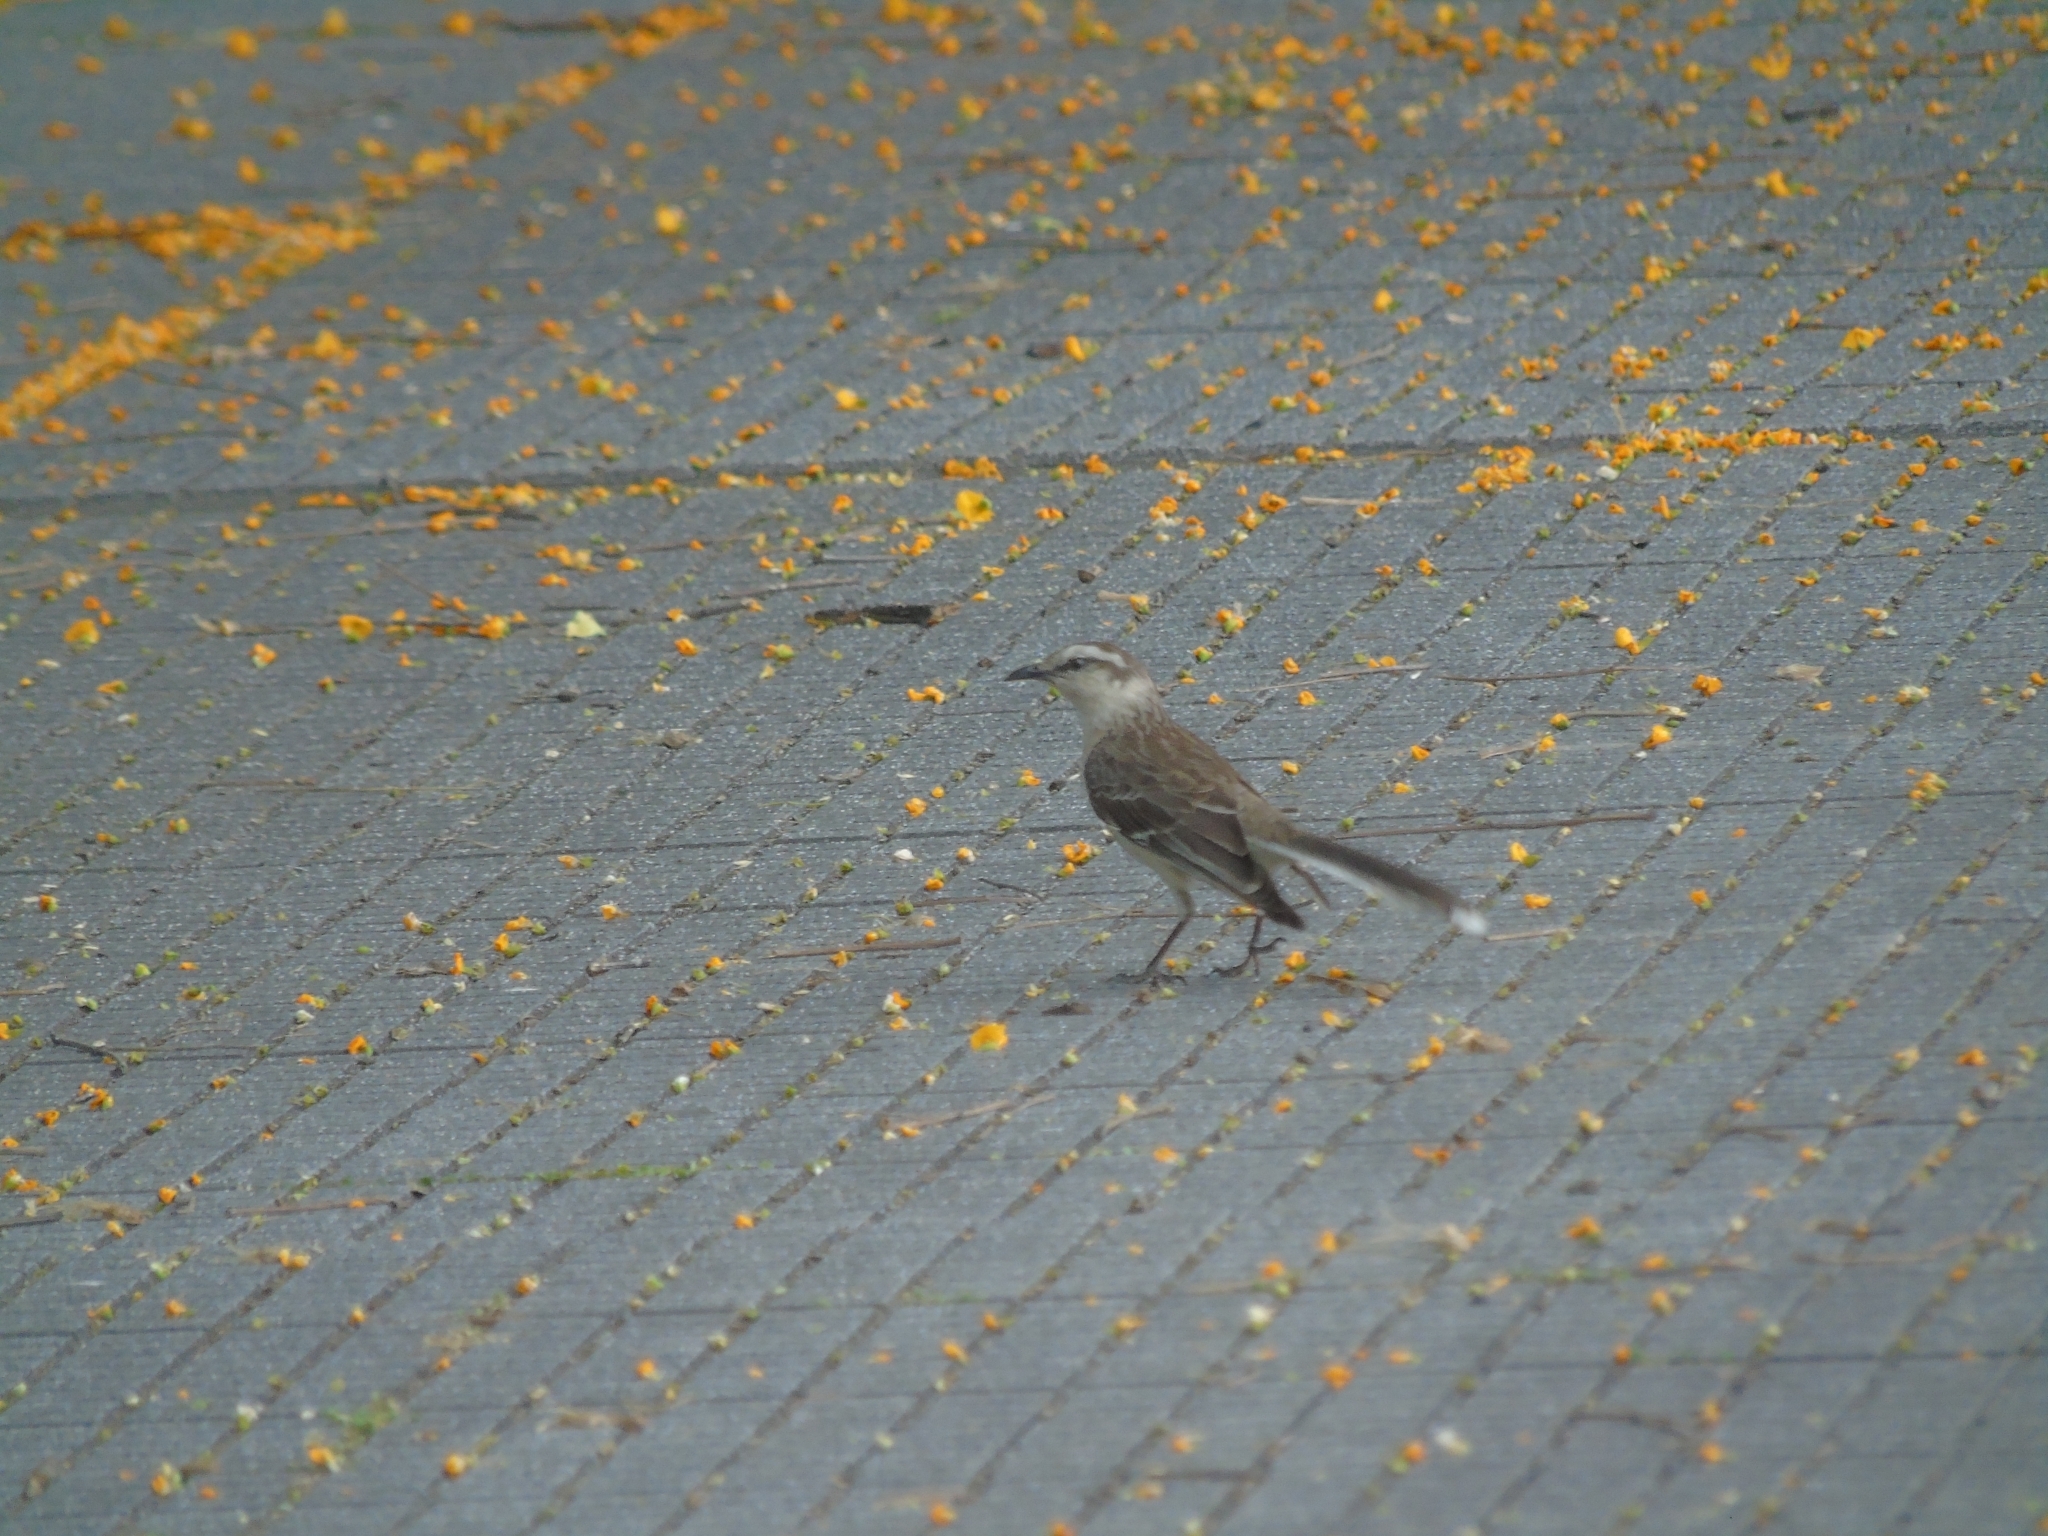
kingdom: Animalia
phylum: Chordata
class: Aves
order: Passeriformes
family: Mimidae
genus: Mimus
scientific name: Mimus saturninus
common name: Chalk-browed mockingbird
